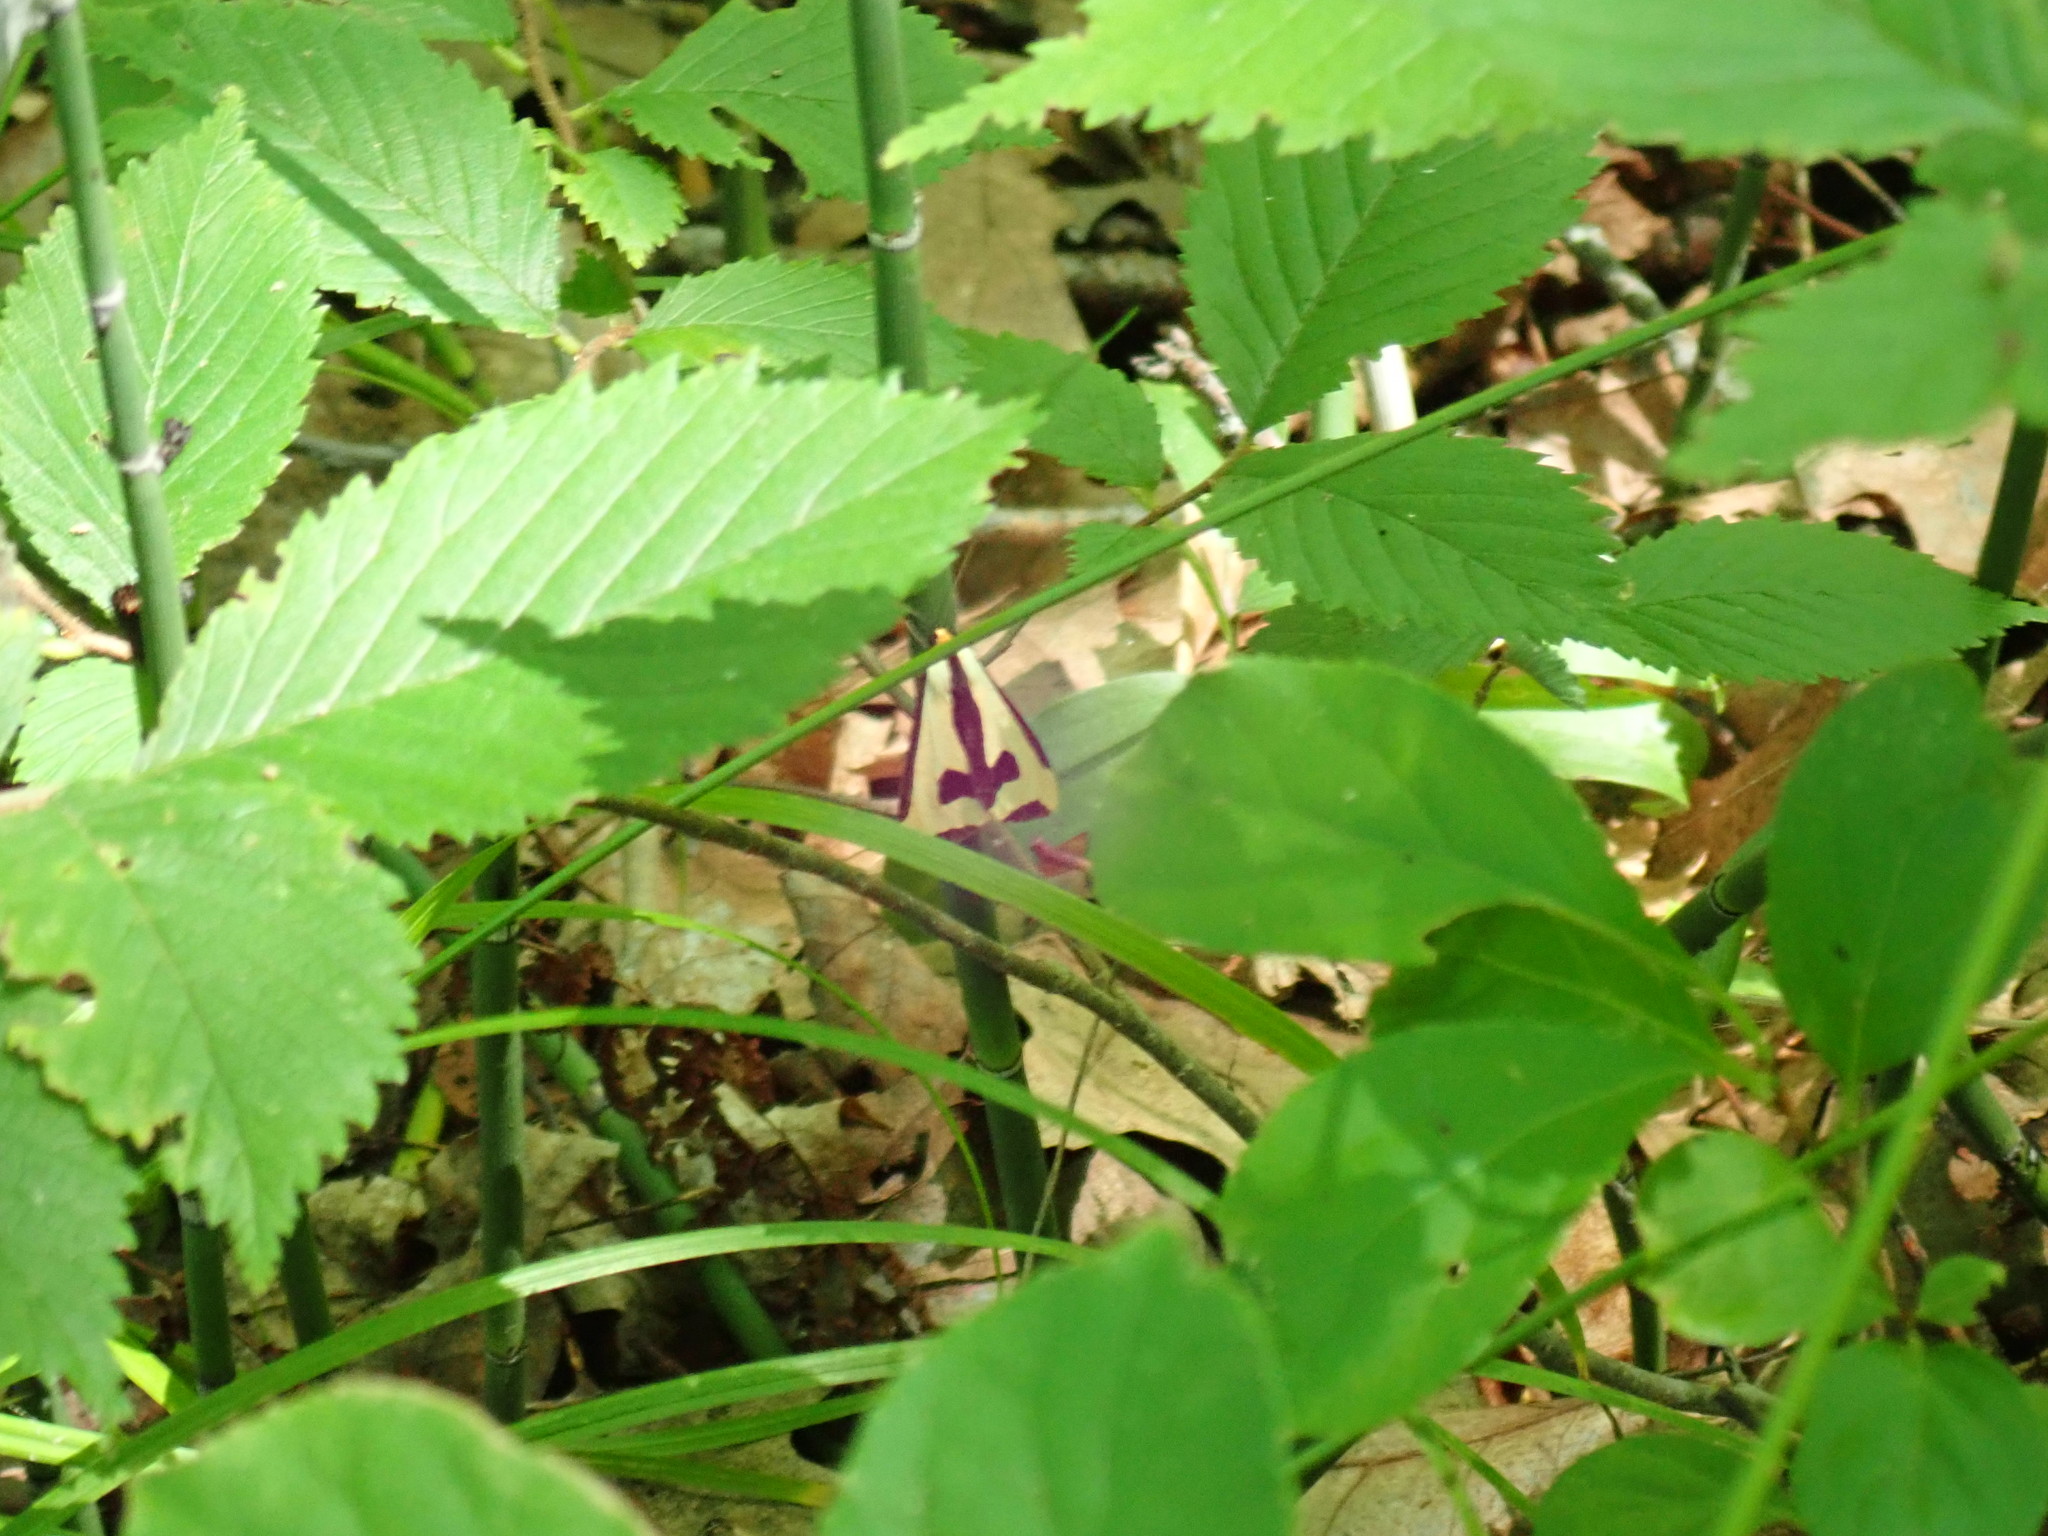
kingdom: Animalia
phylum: Arthropoda
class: Insecta
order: Lepidoptera
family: Erebidae
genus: Haploa
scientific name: Haploa clymene
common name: Clymene moth
